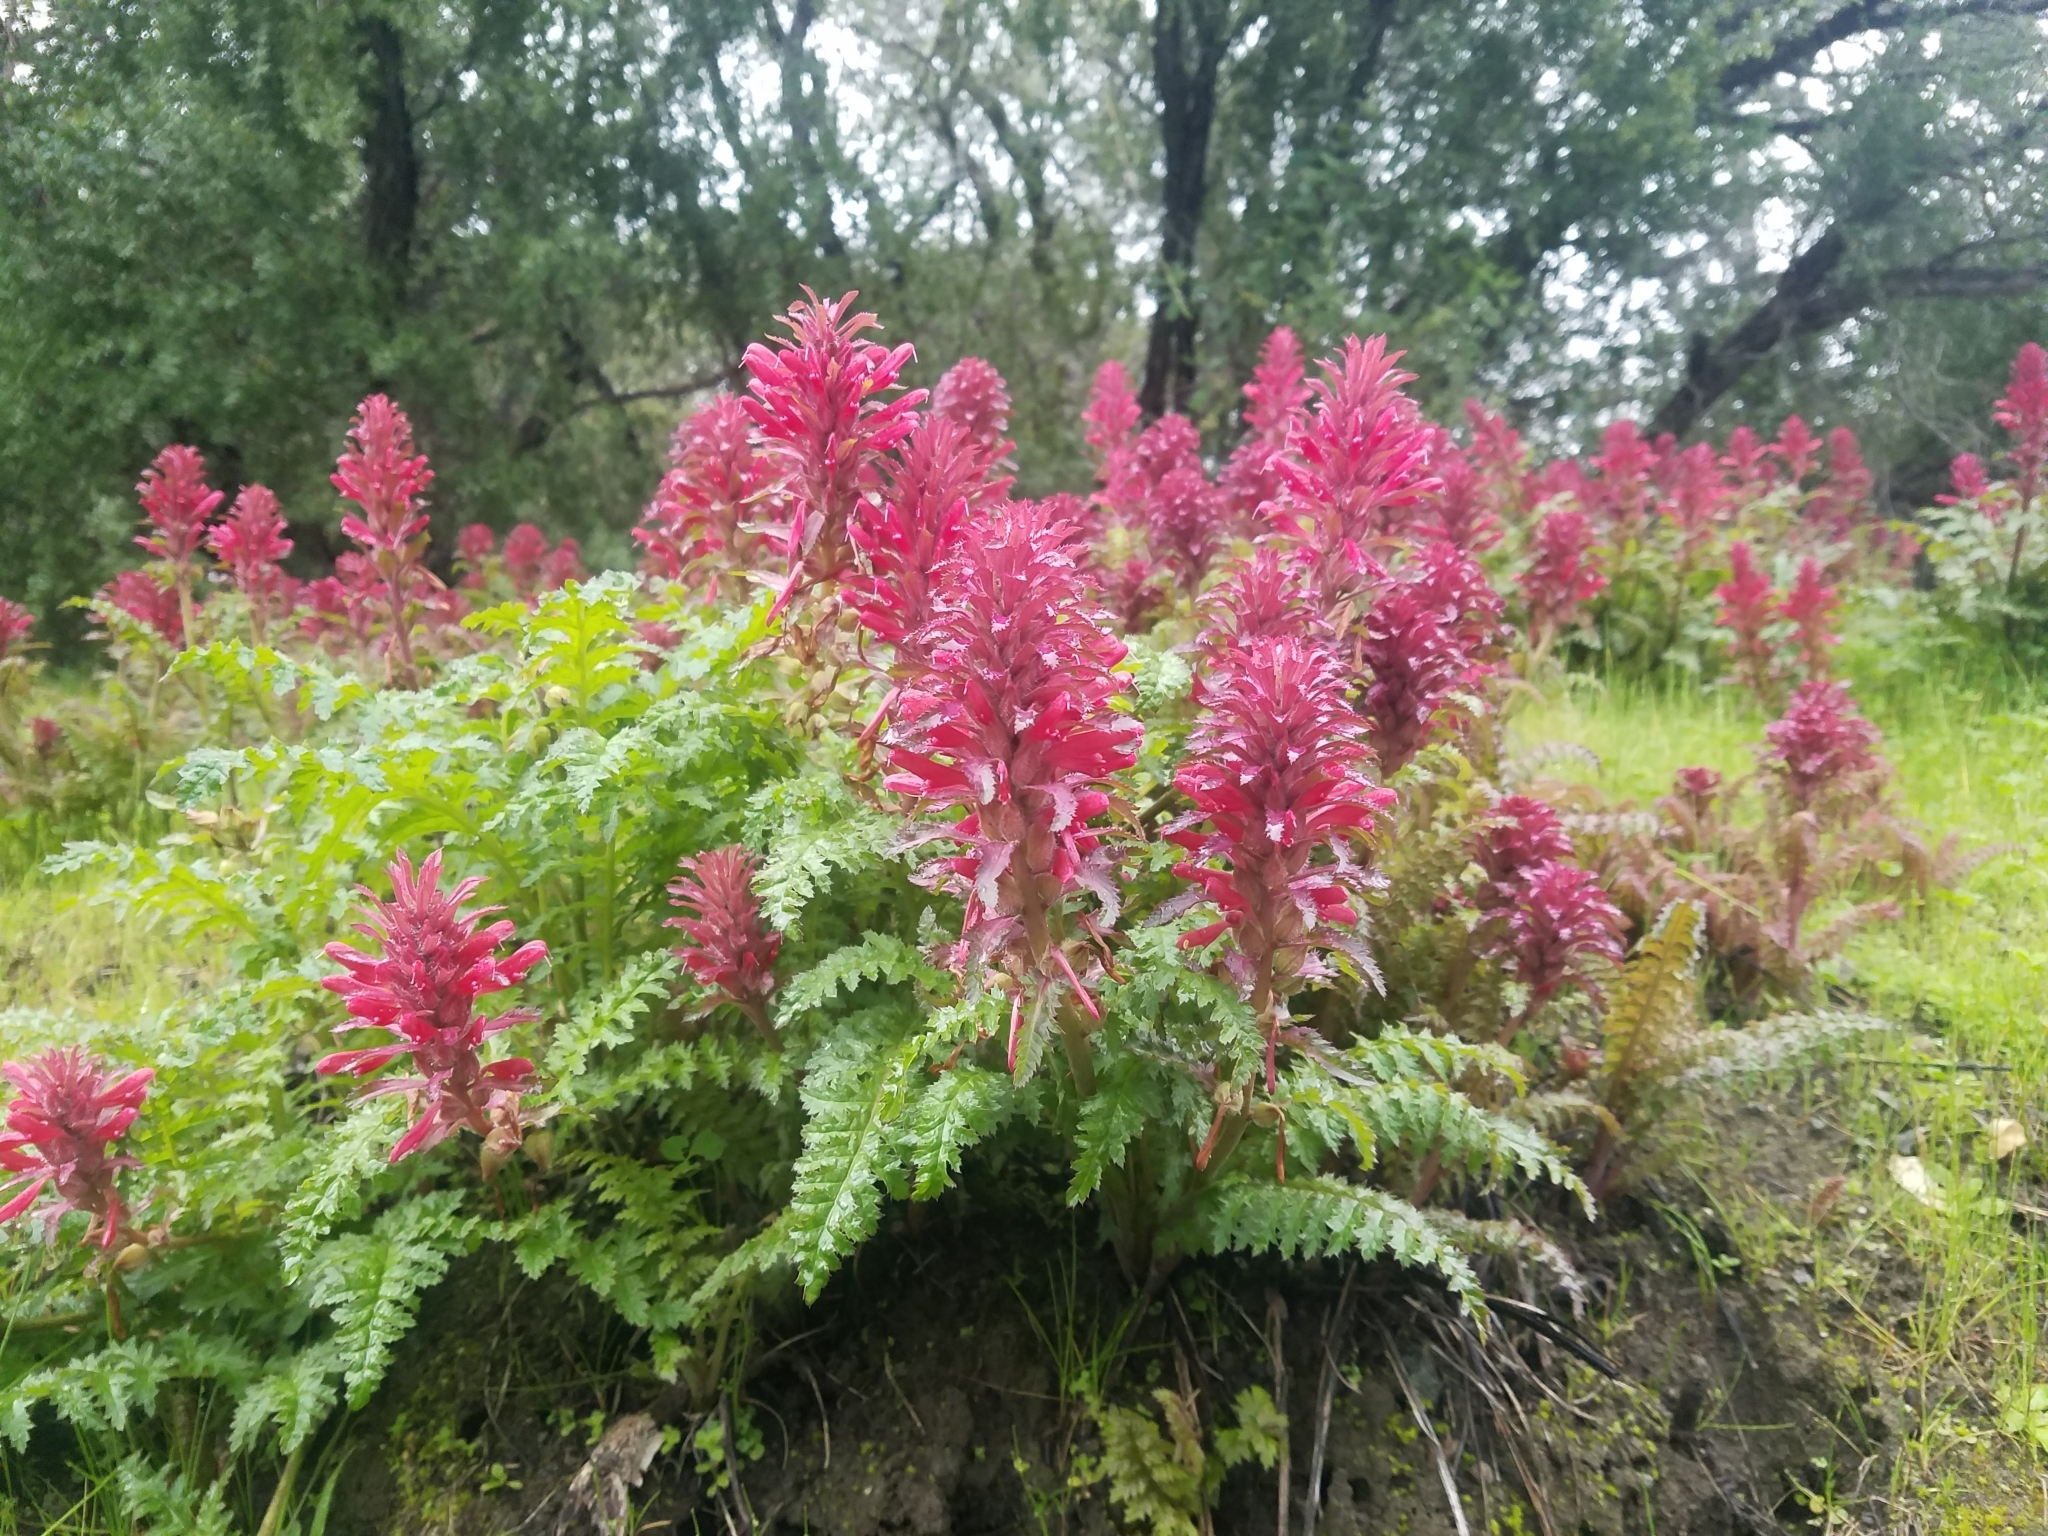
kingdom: Plantae
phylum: Tracheophyta
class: Magnoliopsida
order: Lamiales
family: Orobanchaceae
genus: Pedicularis
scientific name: Pedicularis densiflora
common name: Indian warrior
